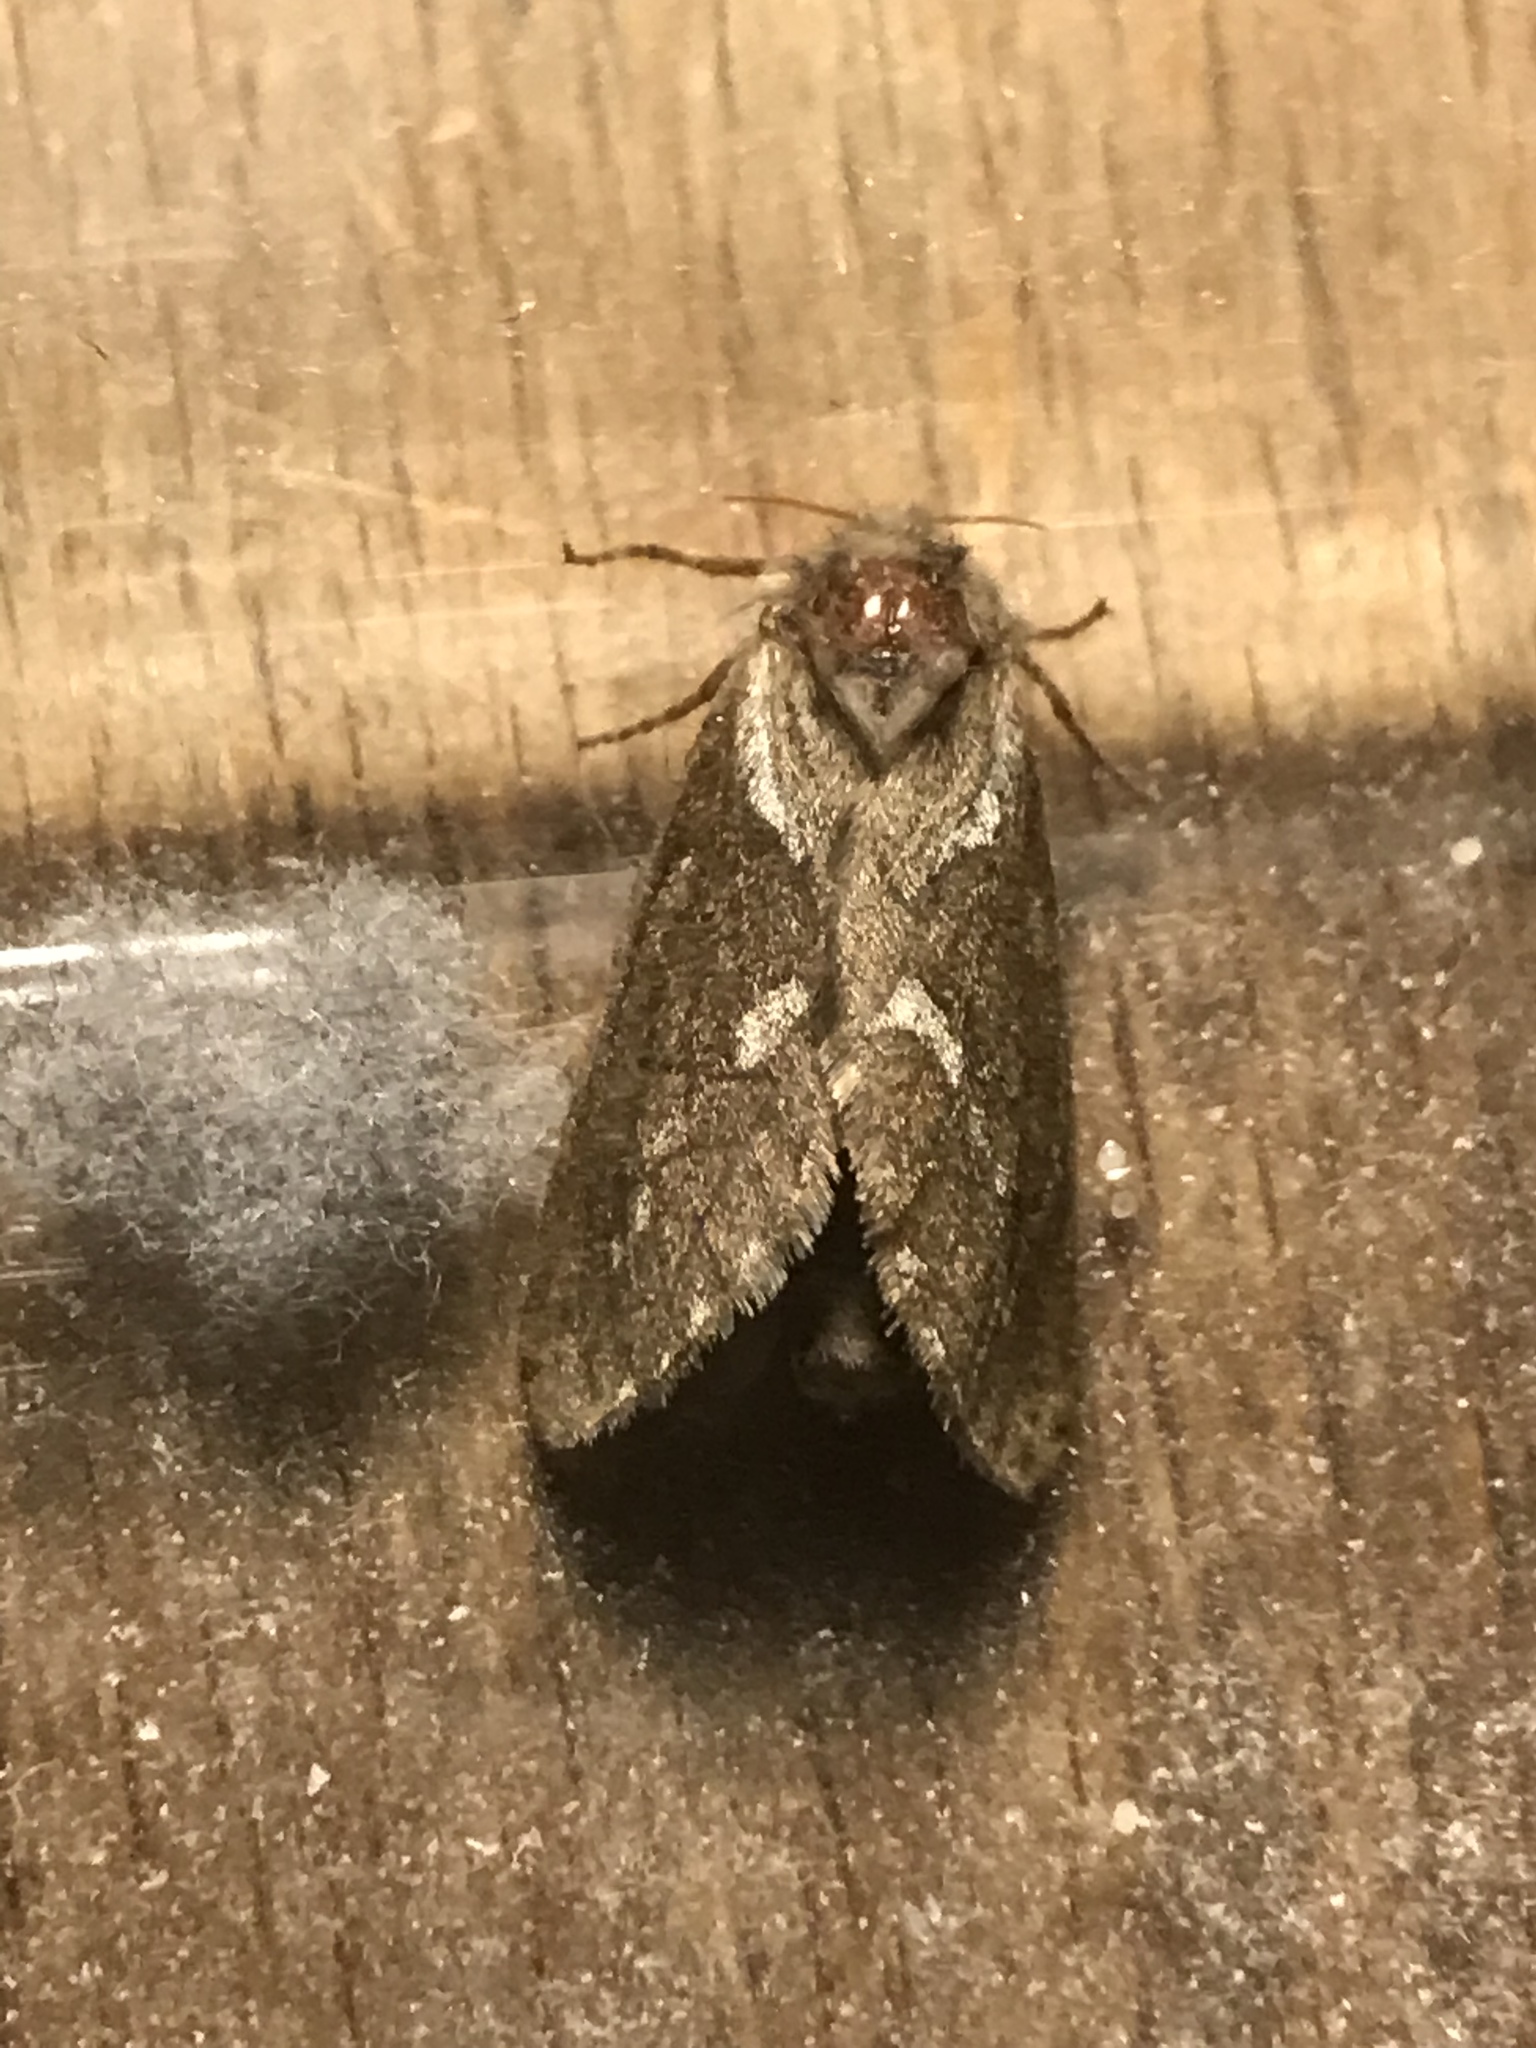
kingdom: Animalia
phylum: Arthropoda
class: Insecta
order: Lepidoptera
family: Hepialidae
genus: Korscheltellus
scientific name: Korscheltellus lupulina
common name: Common swift
